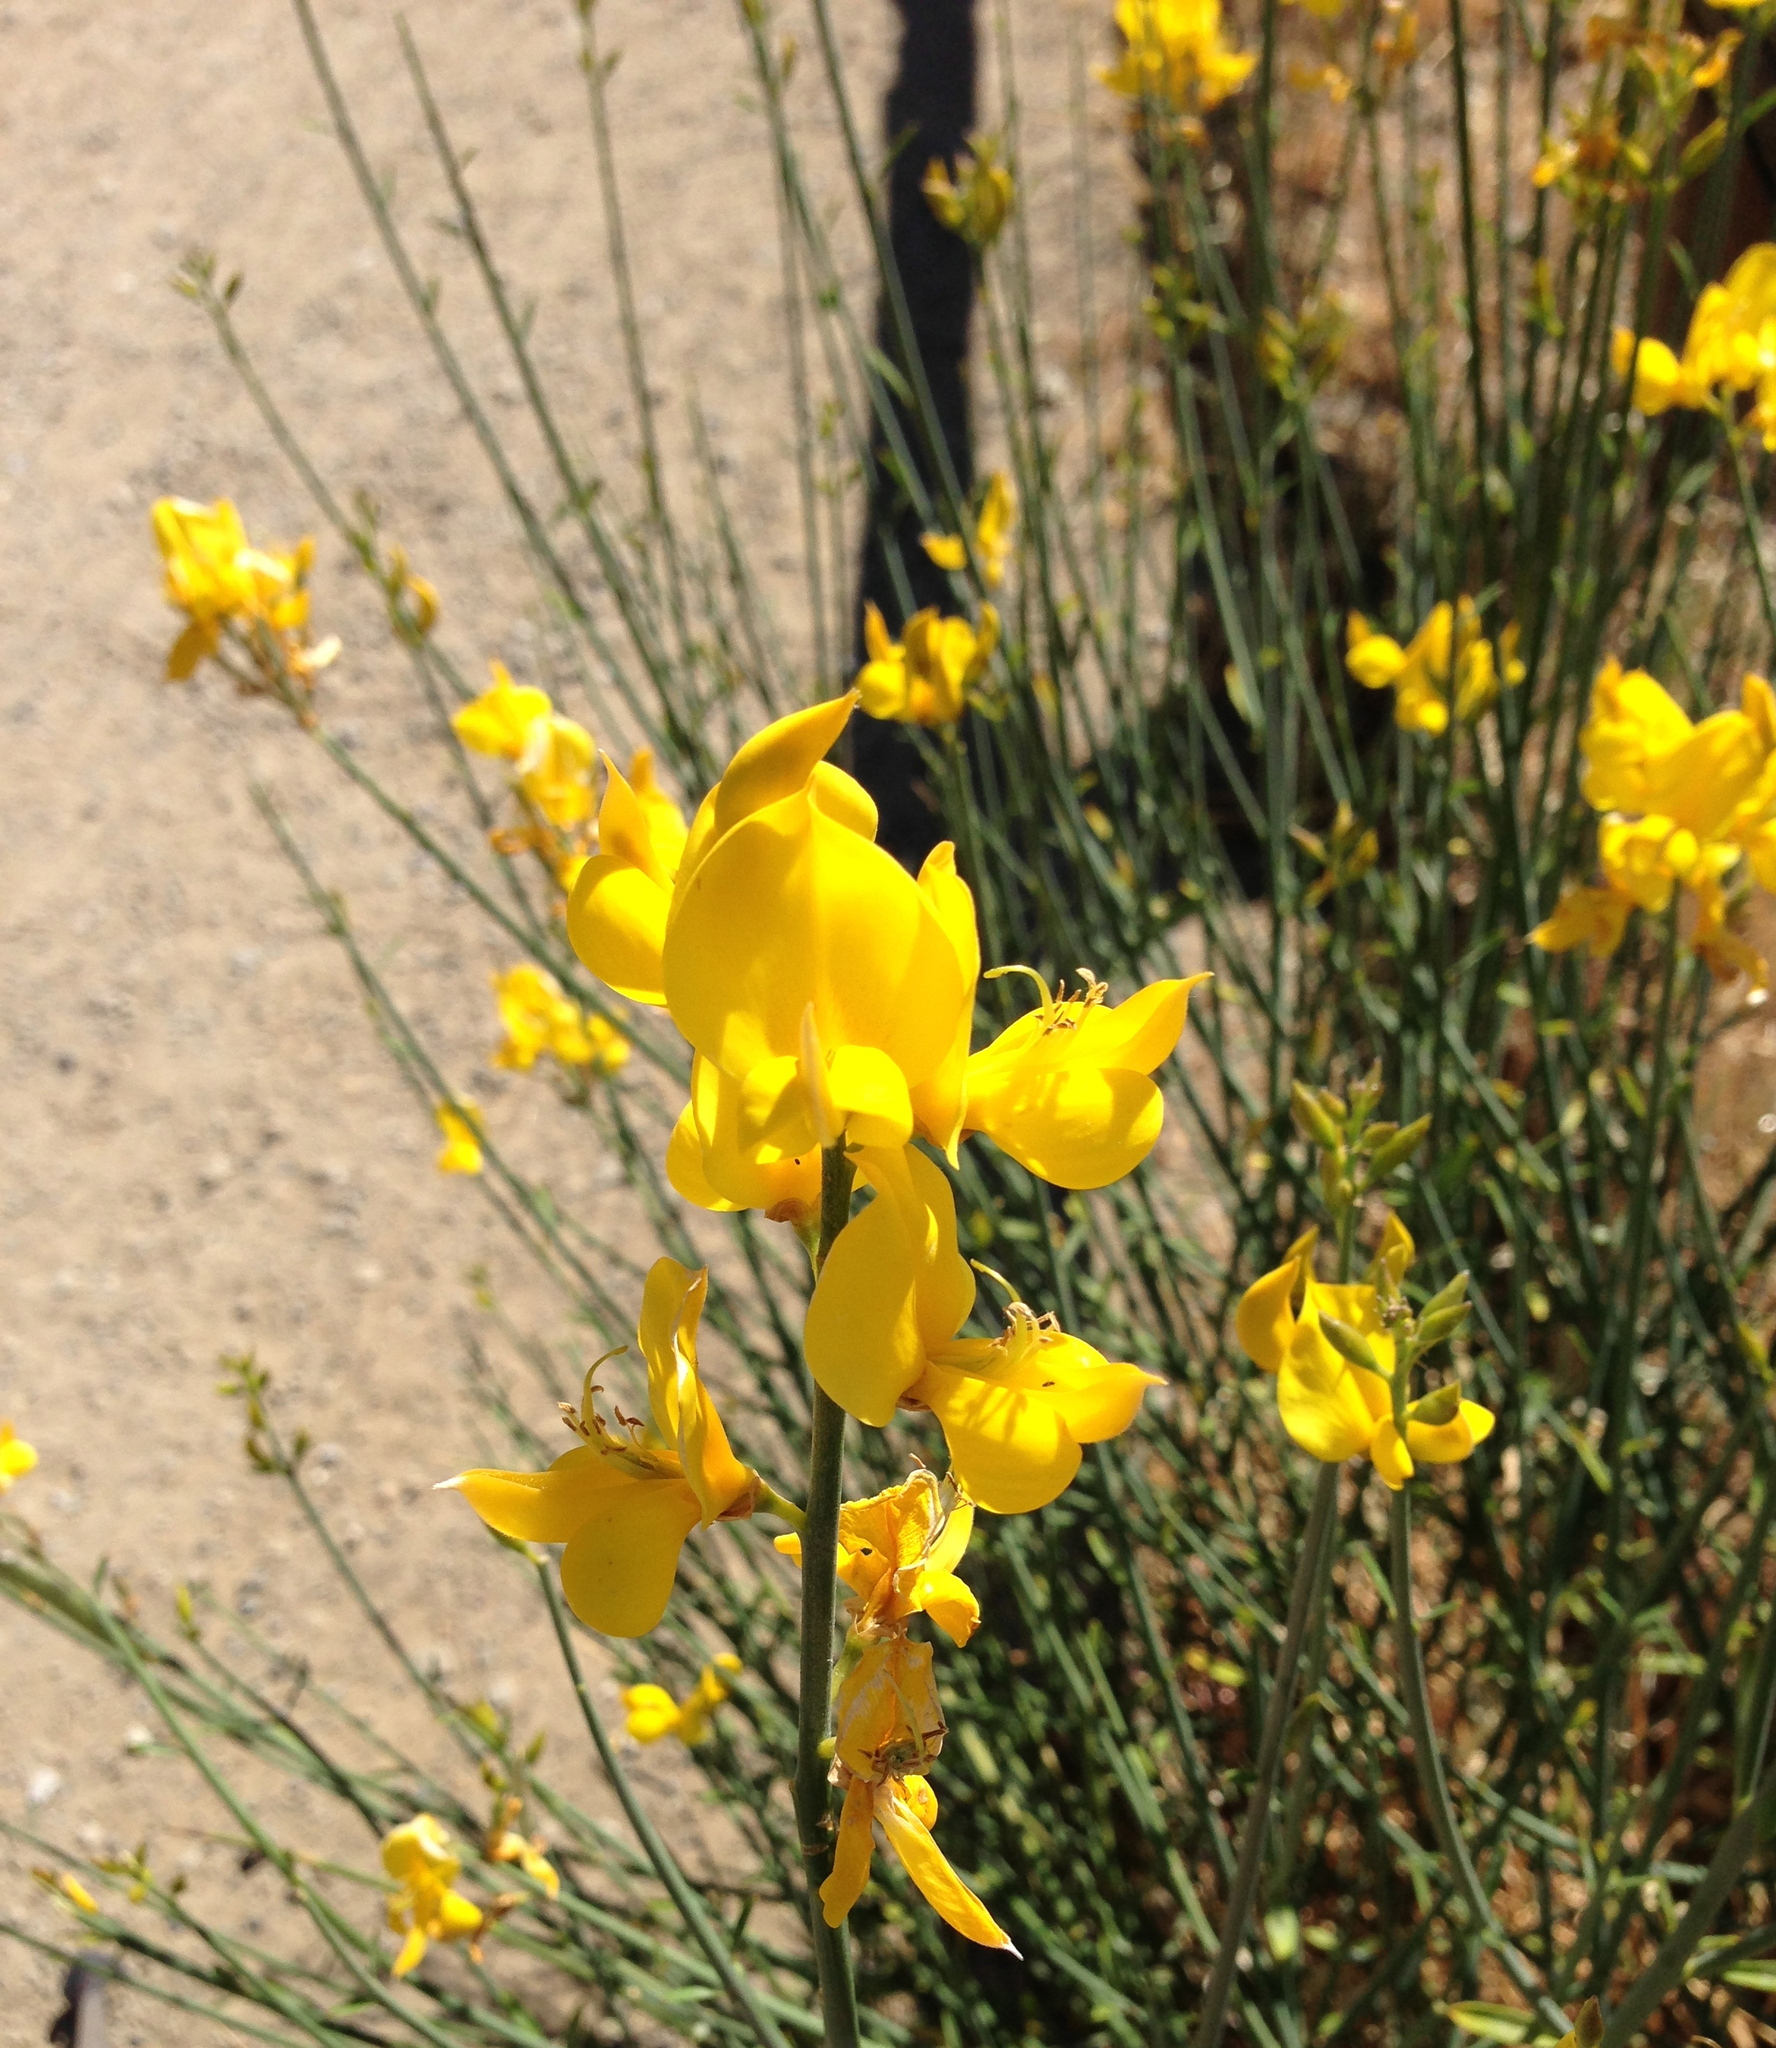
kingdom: Plantae
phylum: Tracheophyta
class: Magnoliopsida
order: Fabales
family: Fabaceae
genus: Spartium
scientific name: Spartium junceum
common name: Spanish broom
